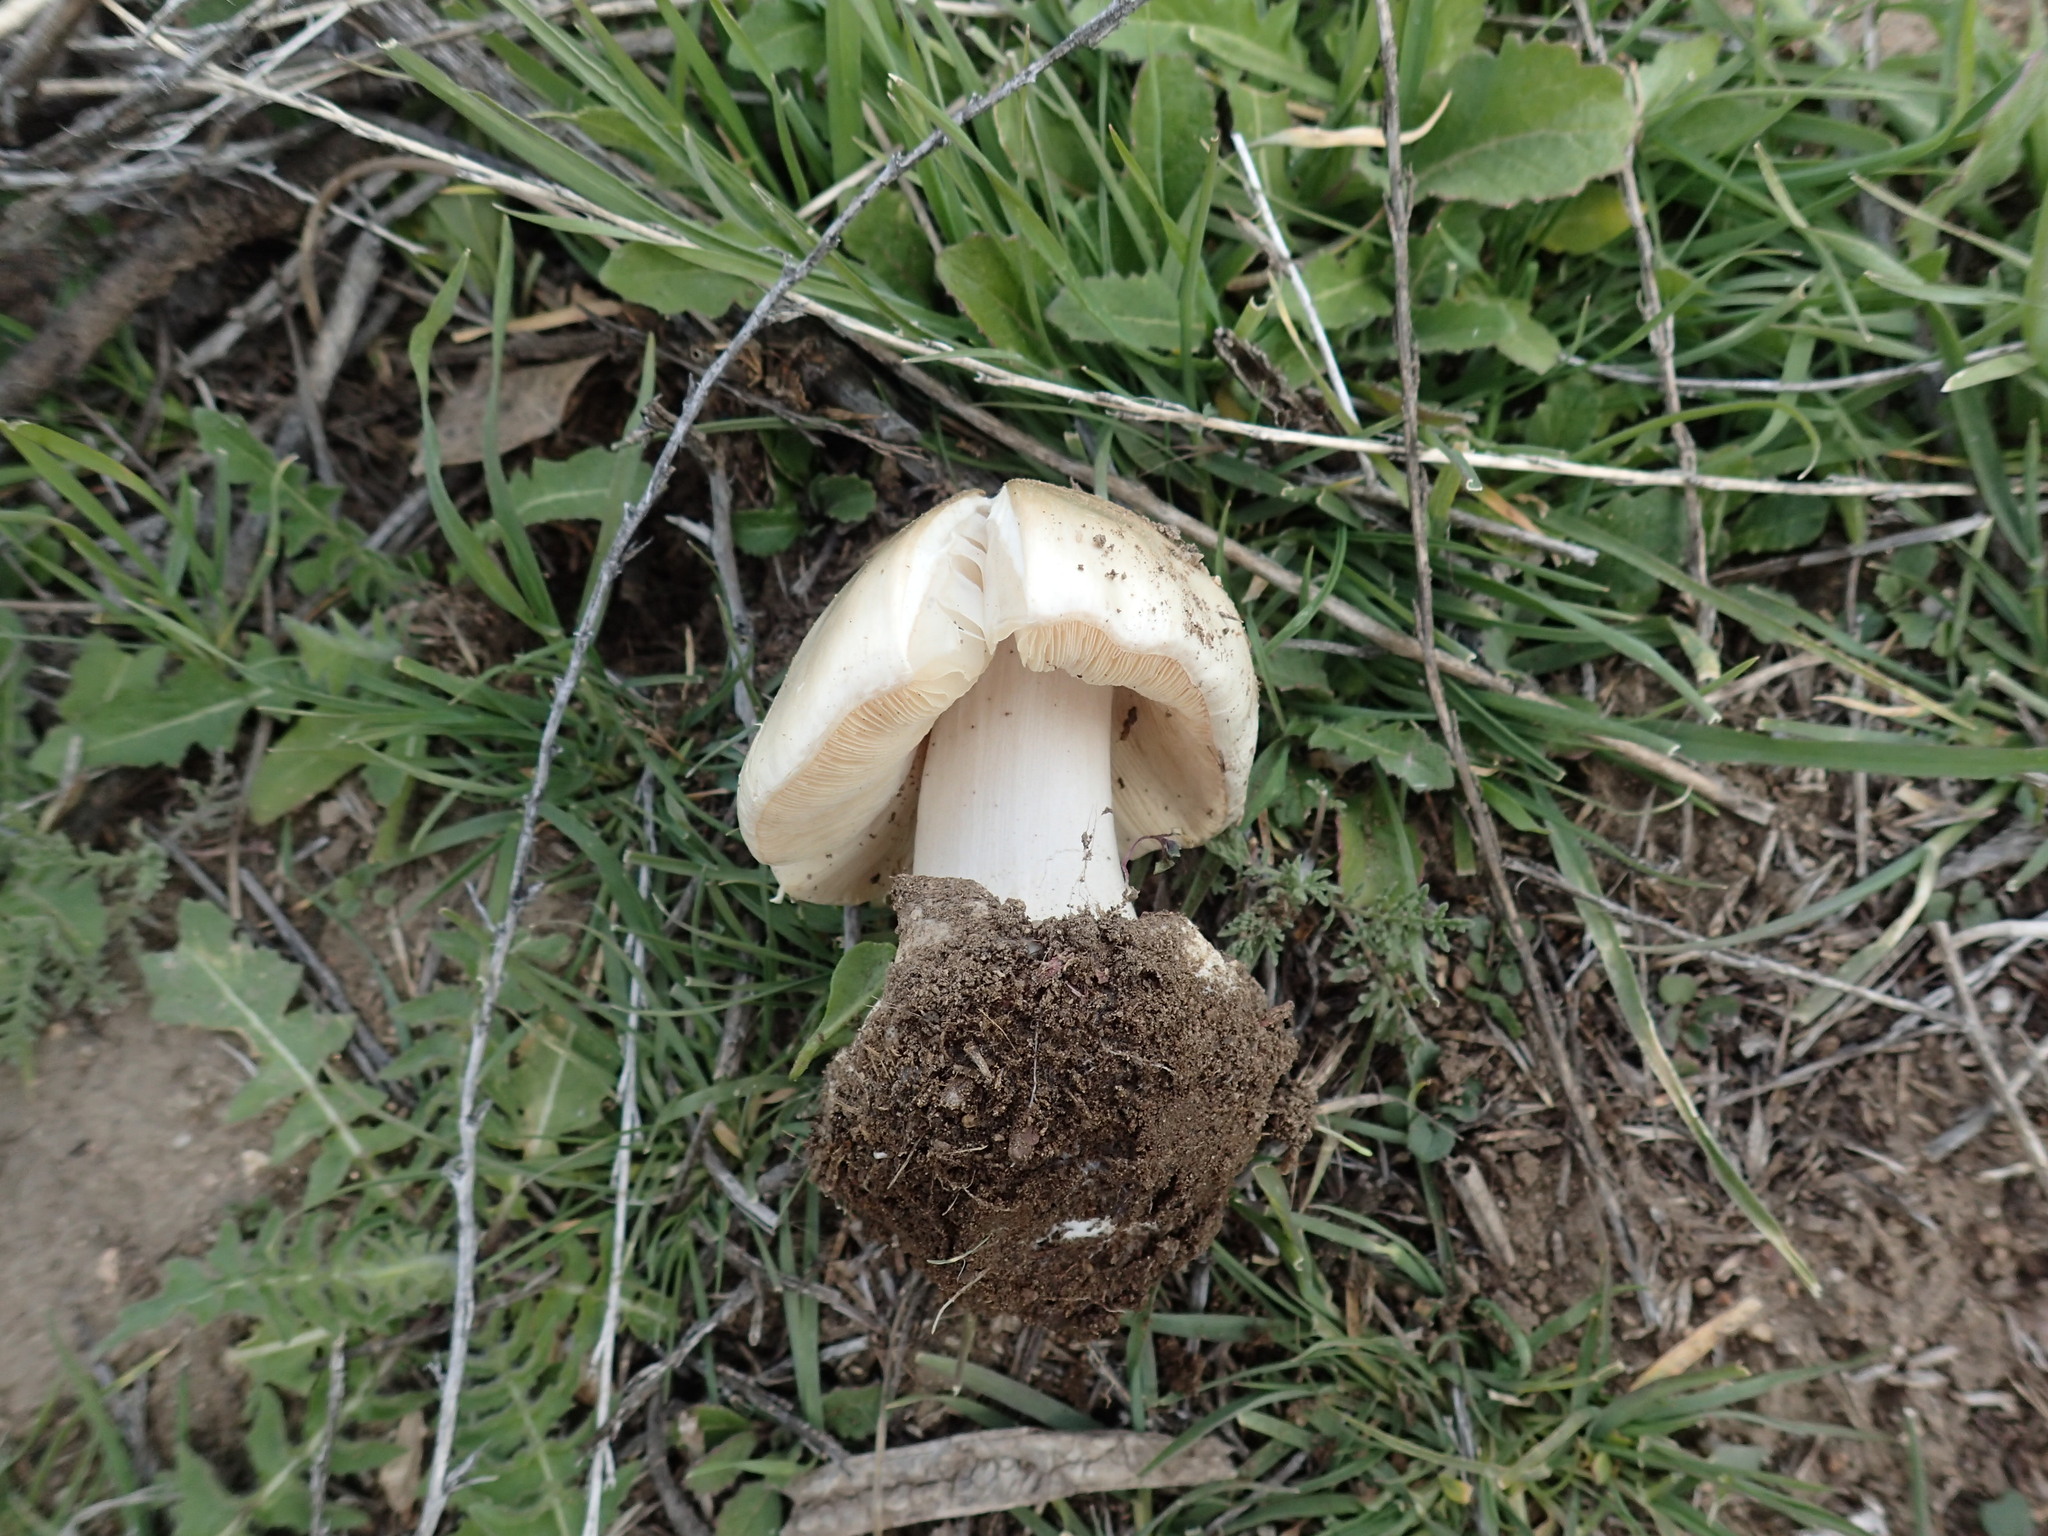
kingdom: Fungi
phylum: Basidiomycota
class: Agaricomycetes
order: Agaricales
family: Pluteaceae
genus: Volvopluteus
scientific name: Volvopluteus gloiocephalus
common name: Stubble rosegill
